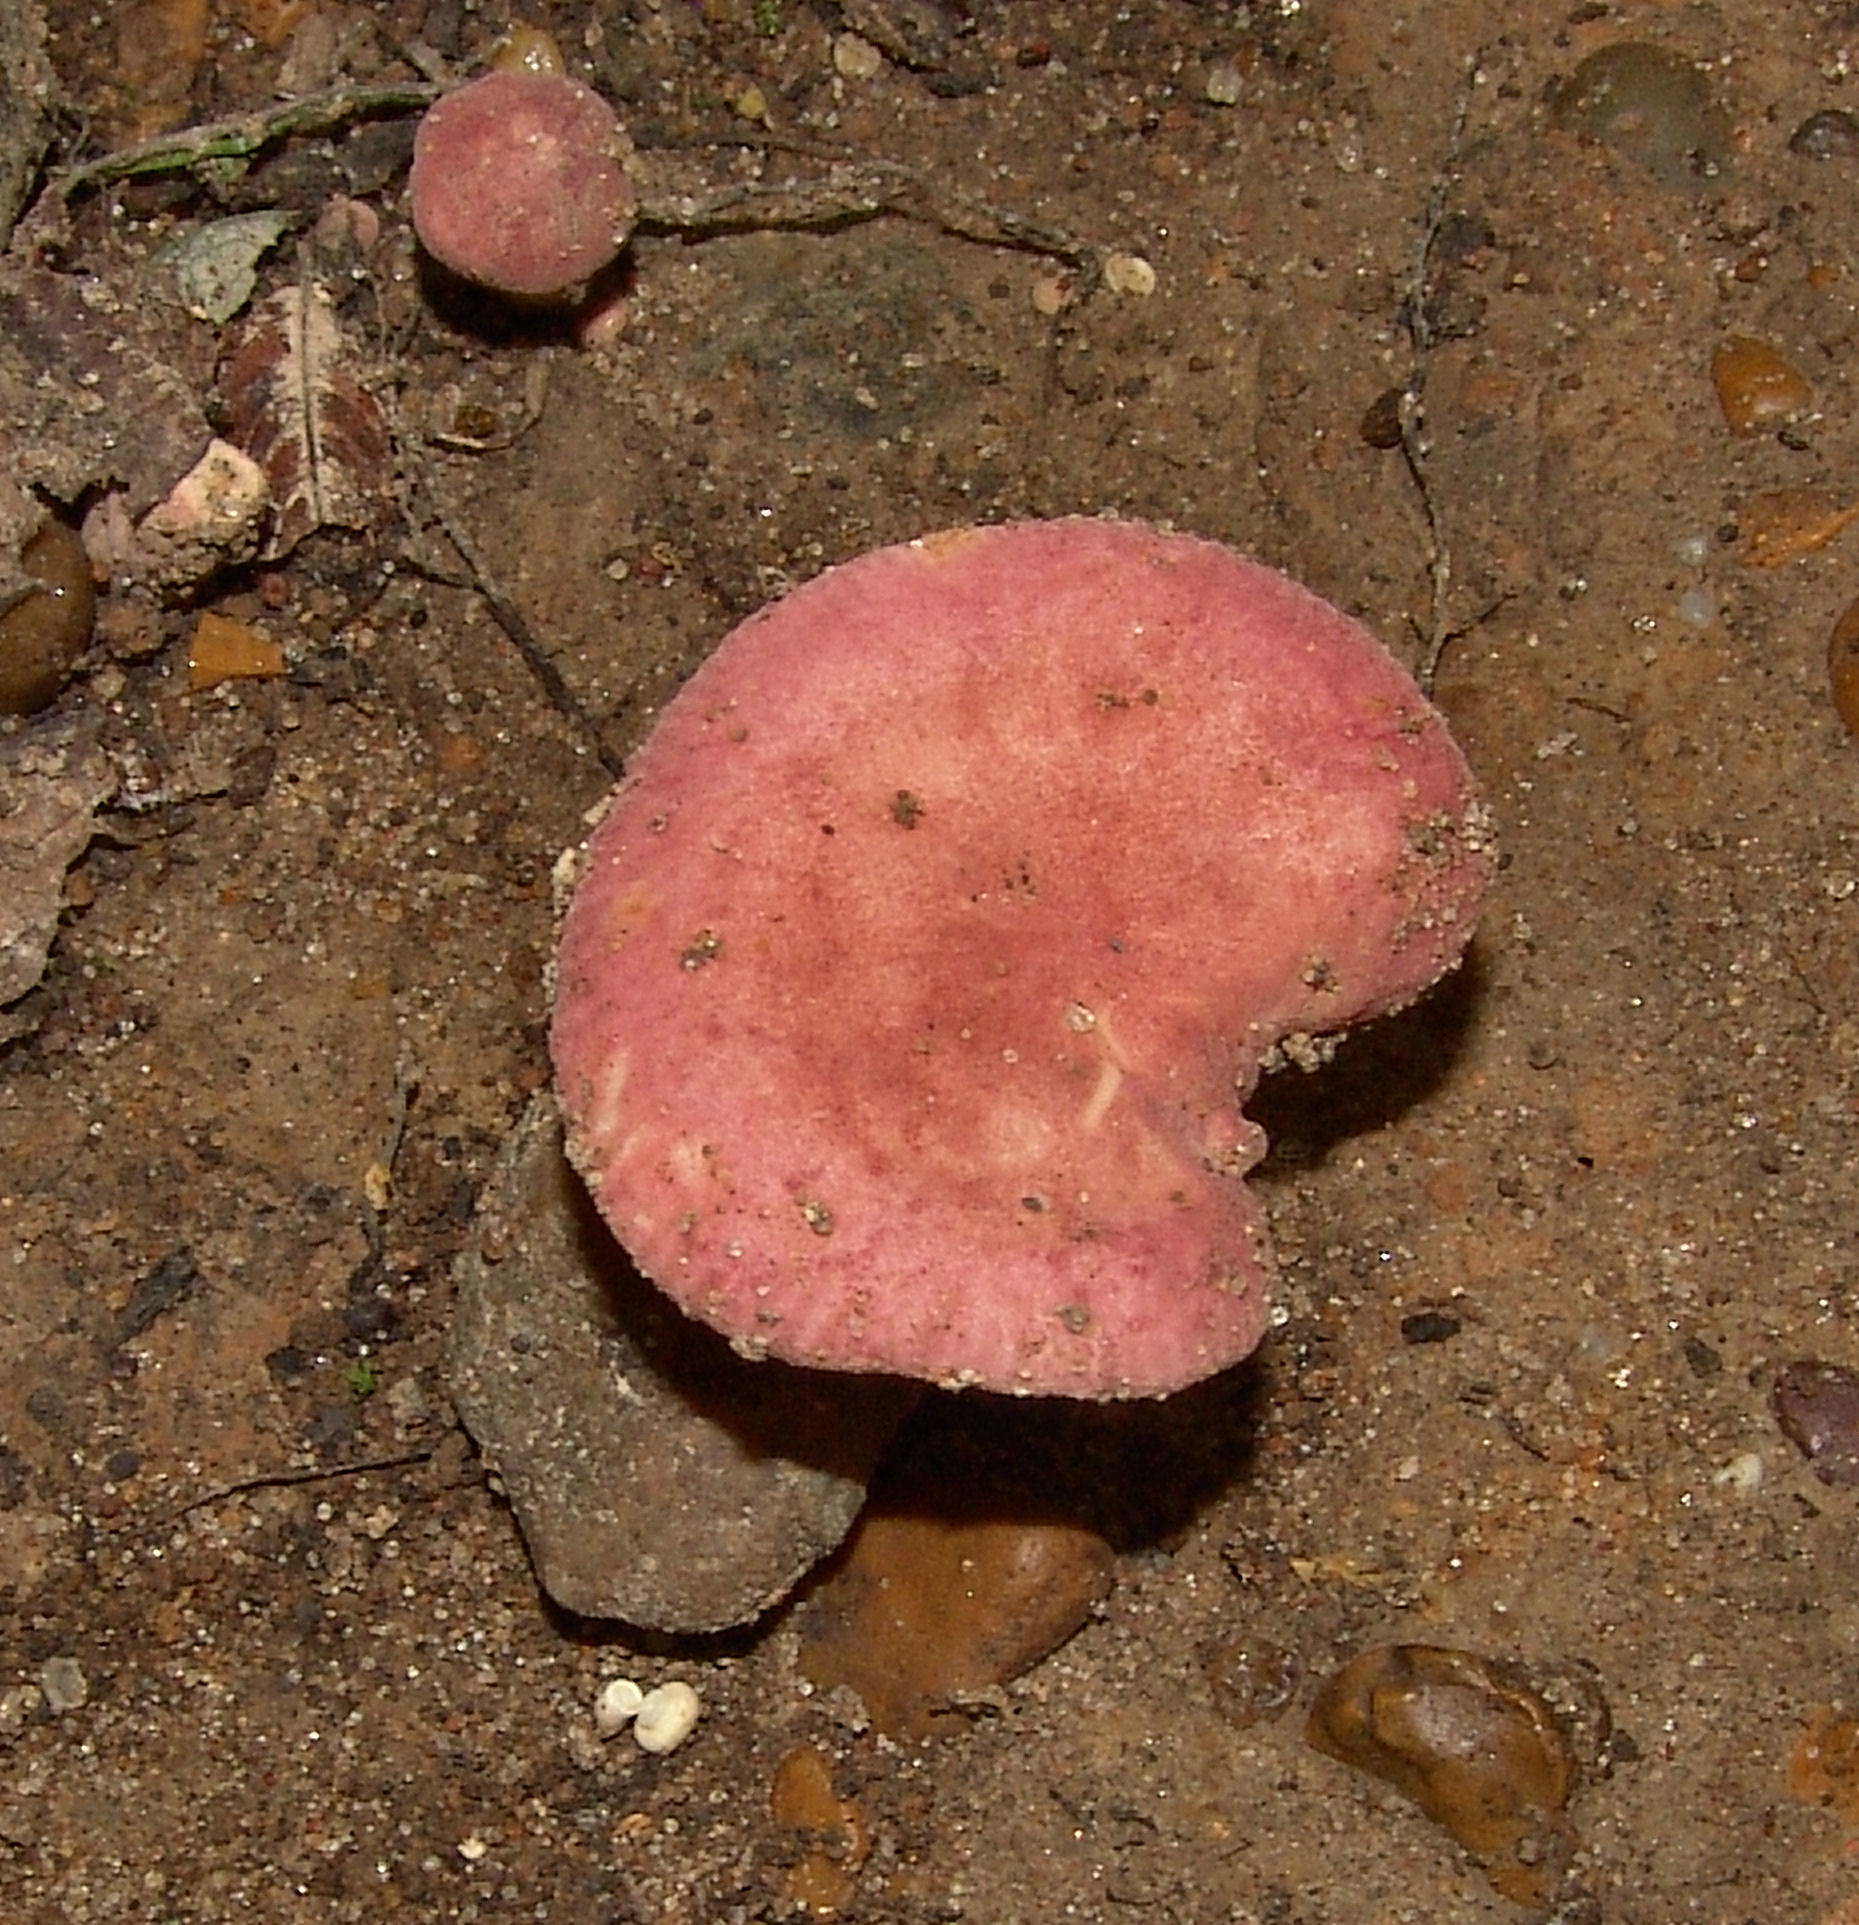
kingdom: Fungi
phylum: Basidiomycota
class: Agaricomycetes
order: Russulales
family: Russulaceae
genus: Russula
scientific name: Russula
